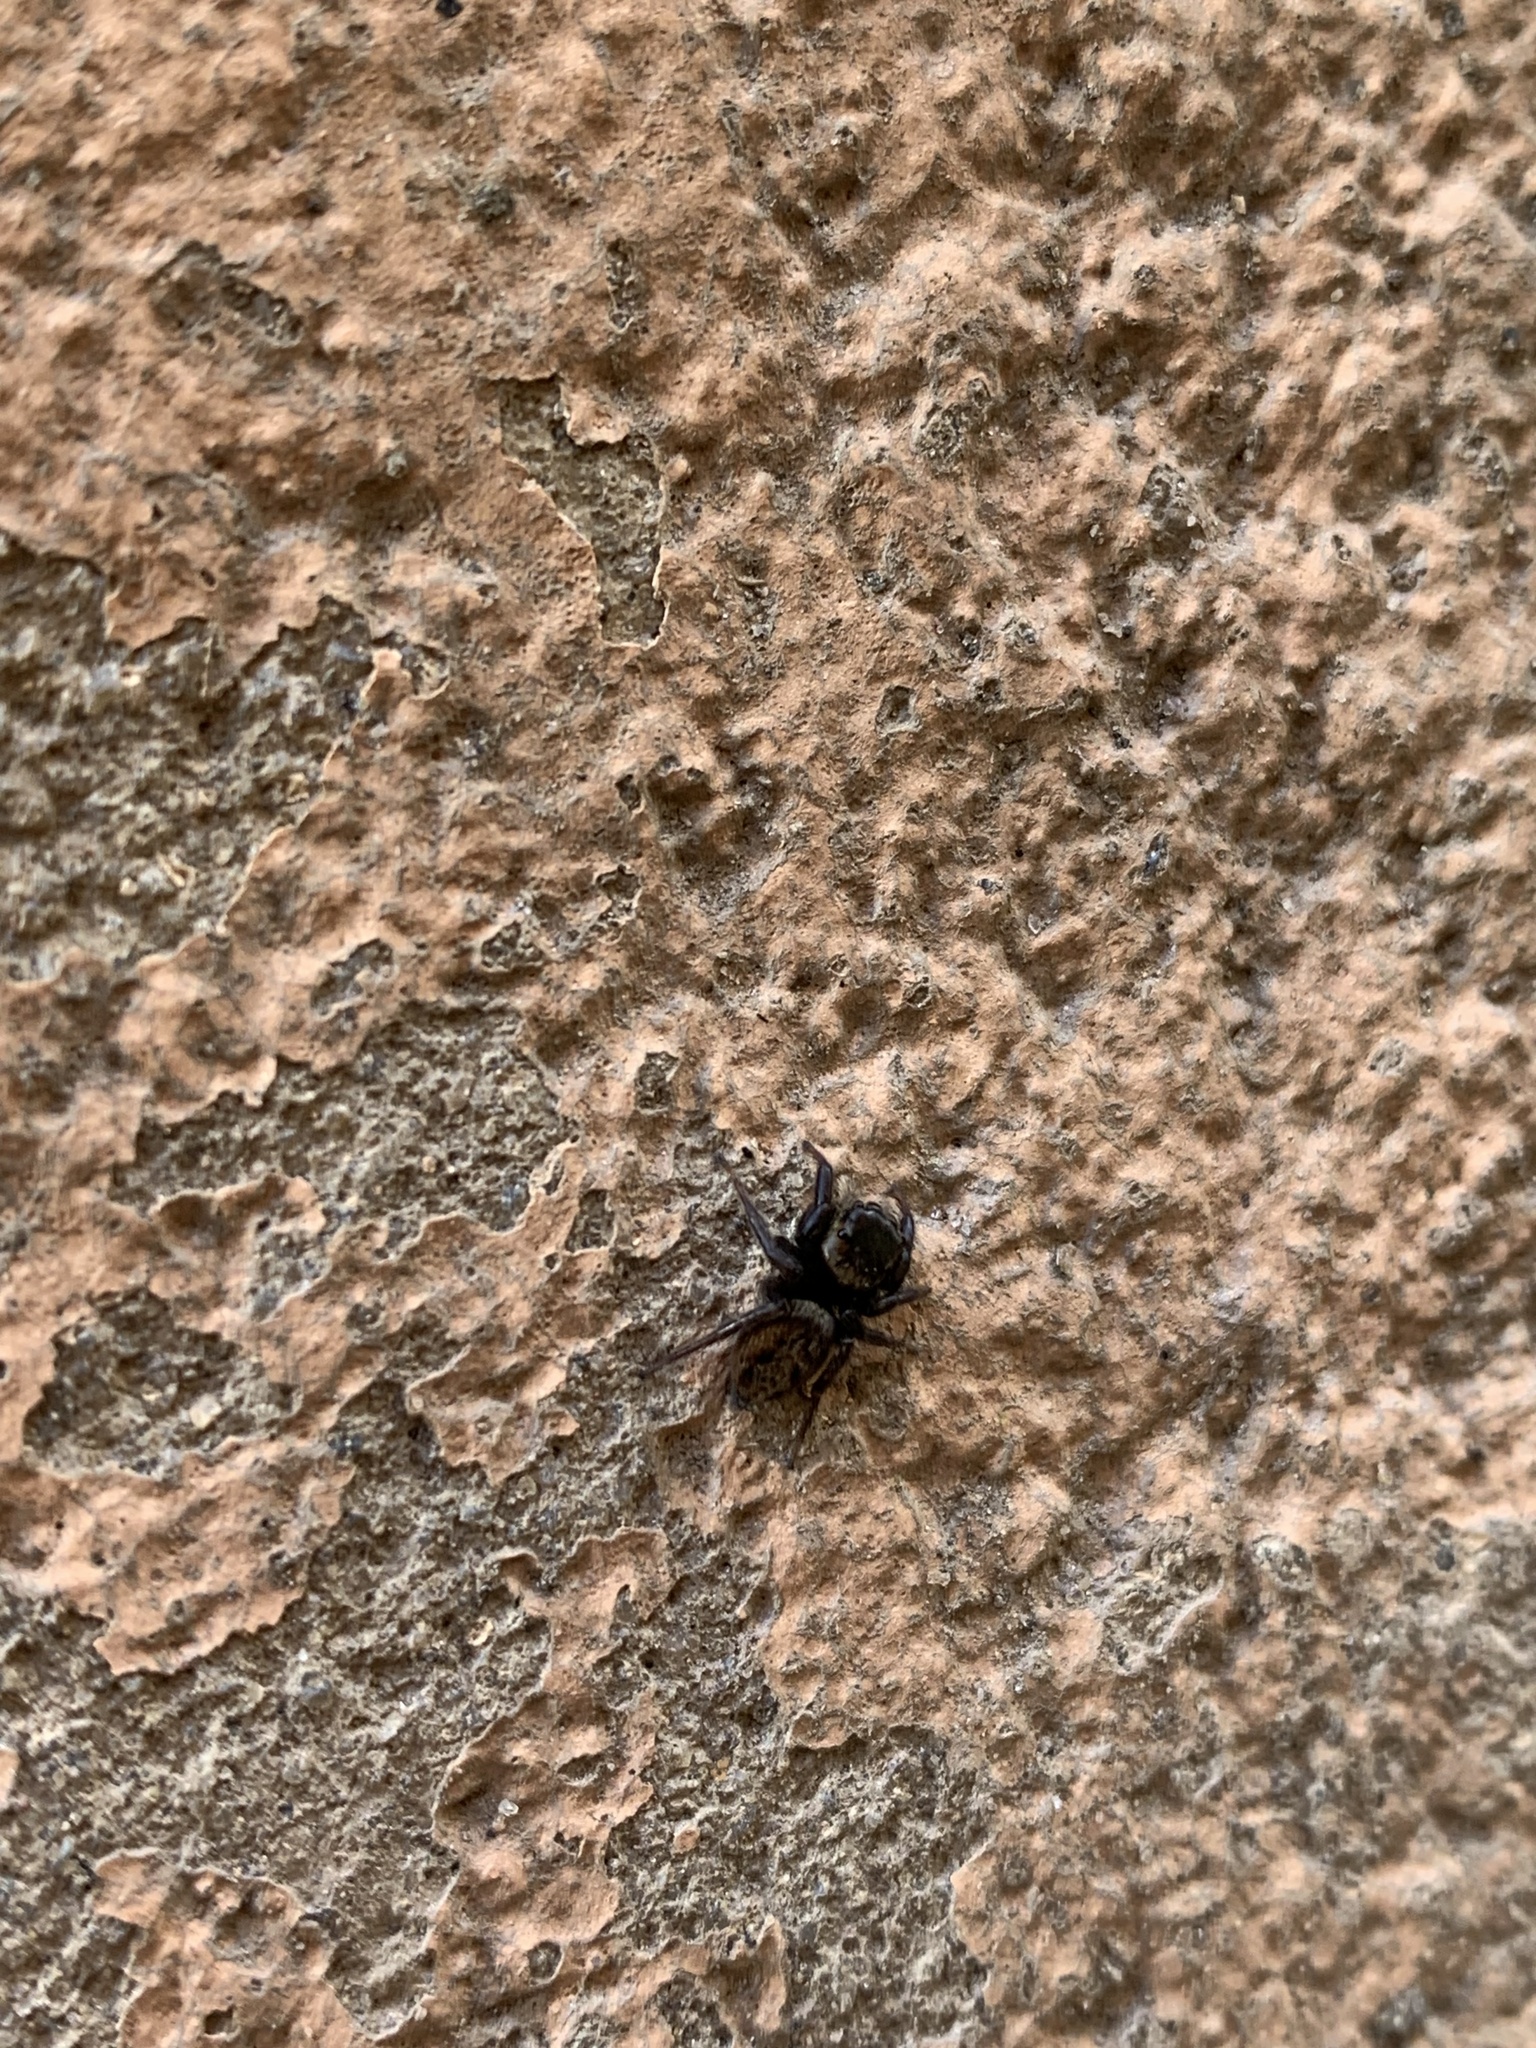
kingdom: Animalia
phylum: Arthropoda
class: Arachnida
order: Araneae
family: Salticidae
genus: Hasarius
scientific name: Hasarius adansoni
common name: Jumping spider
